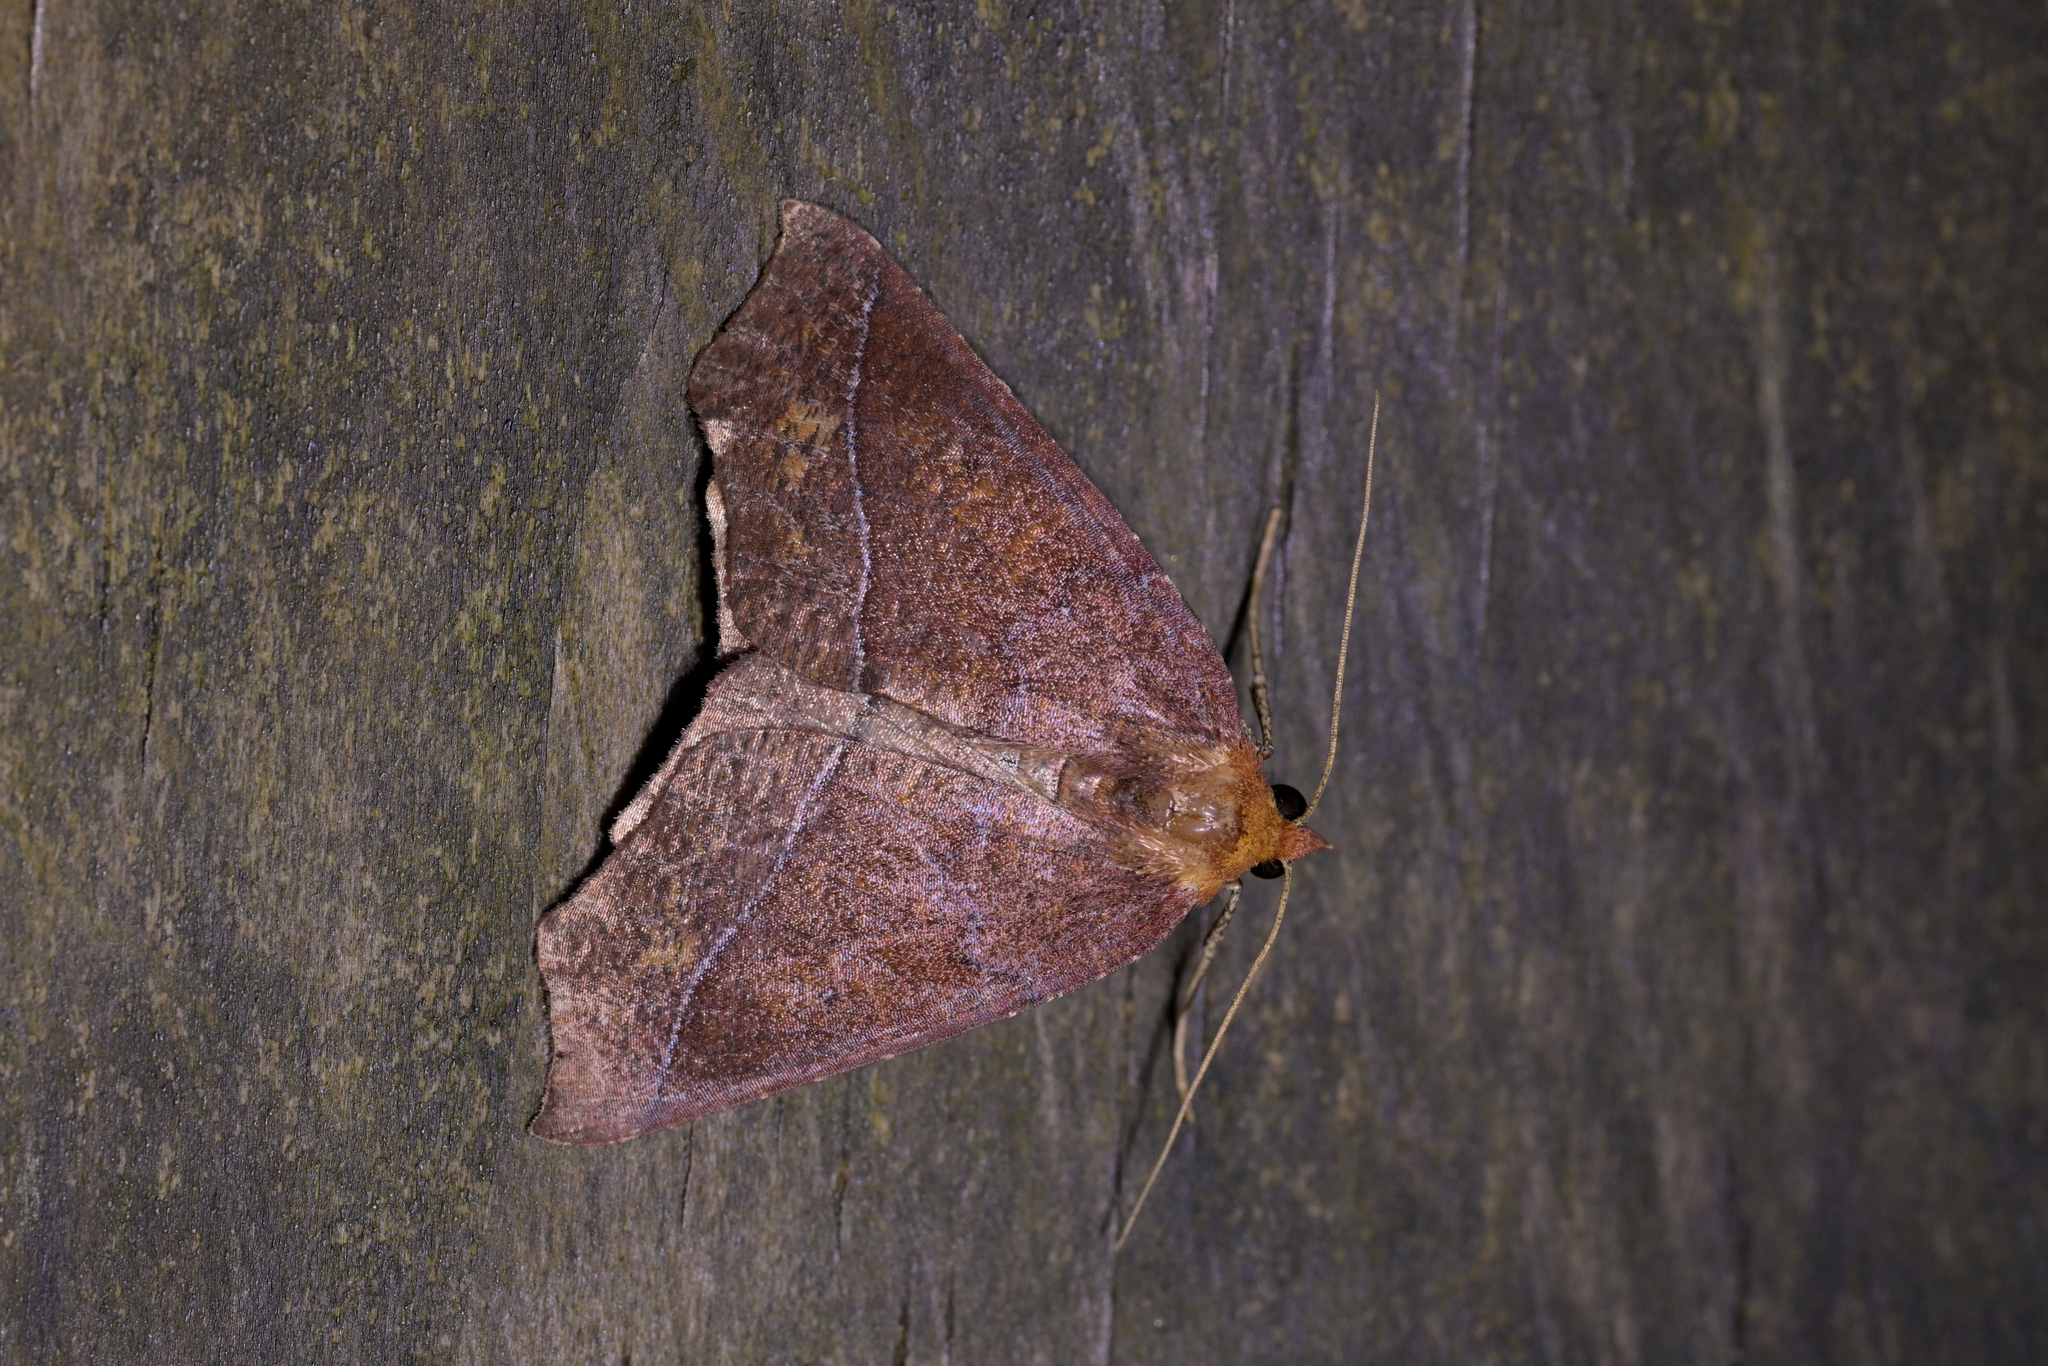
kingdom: Animalia
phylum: Arthropoda
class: Insecta
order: Lepidoptera
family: Geometridae
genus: Ischalis
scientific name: Ischalis nelsonaria
